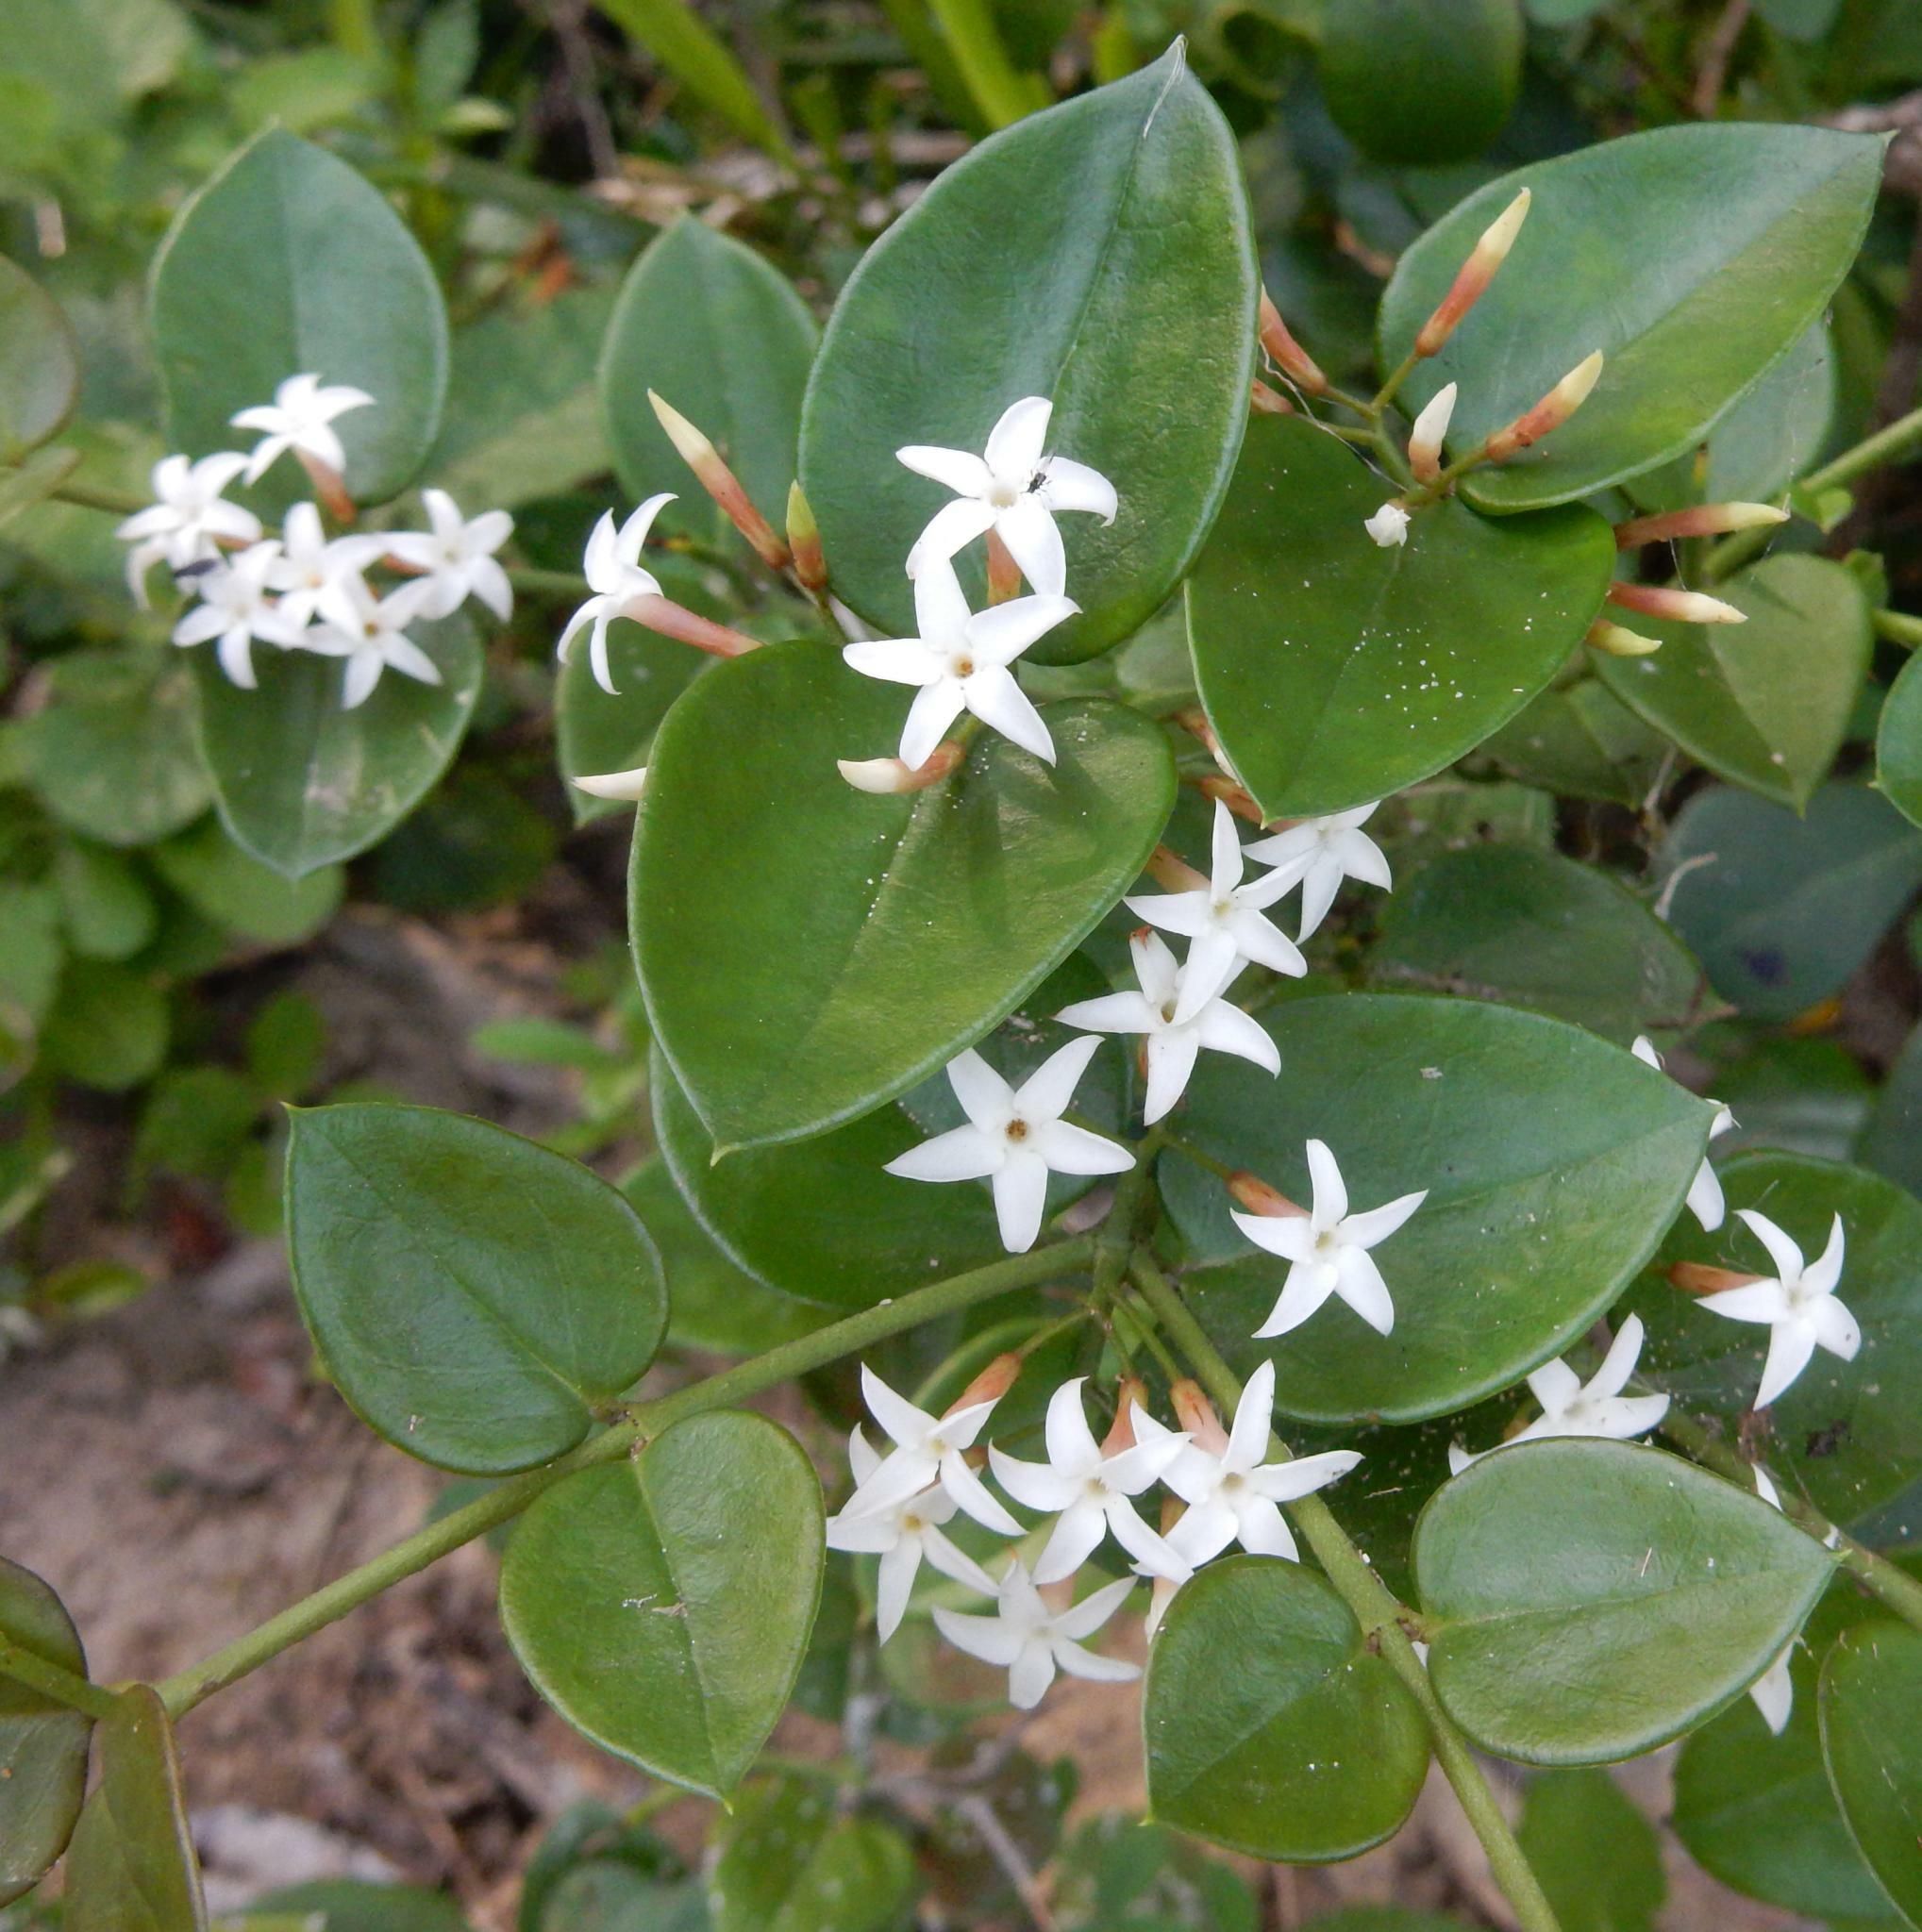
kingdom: Plantae
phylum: Tracheophyta
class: Magnoliopsida
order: Gentianales
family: Apocynaceae
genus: Carissa
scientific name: Carissa bispinosa
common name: Forest num-num
